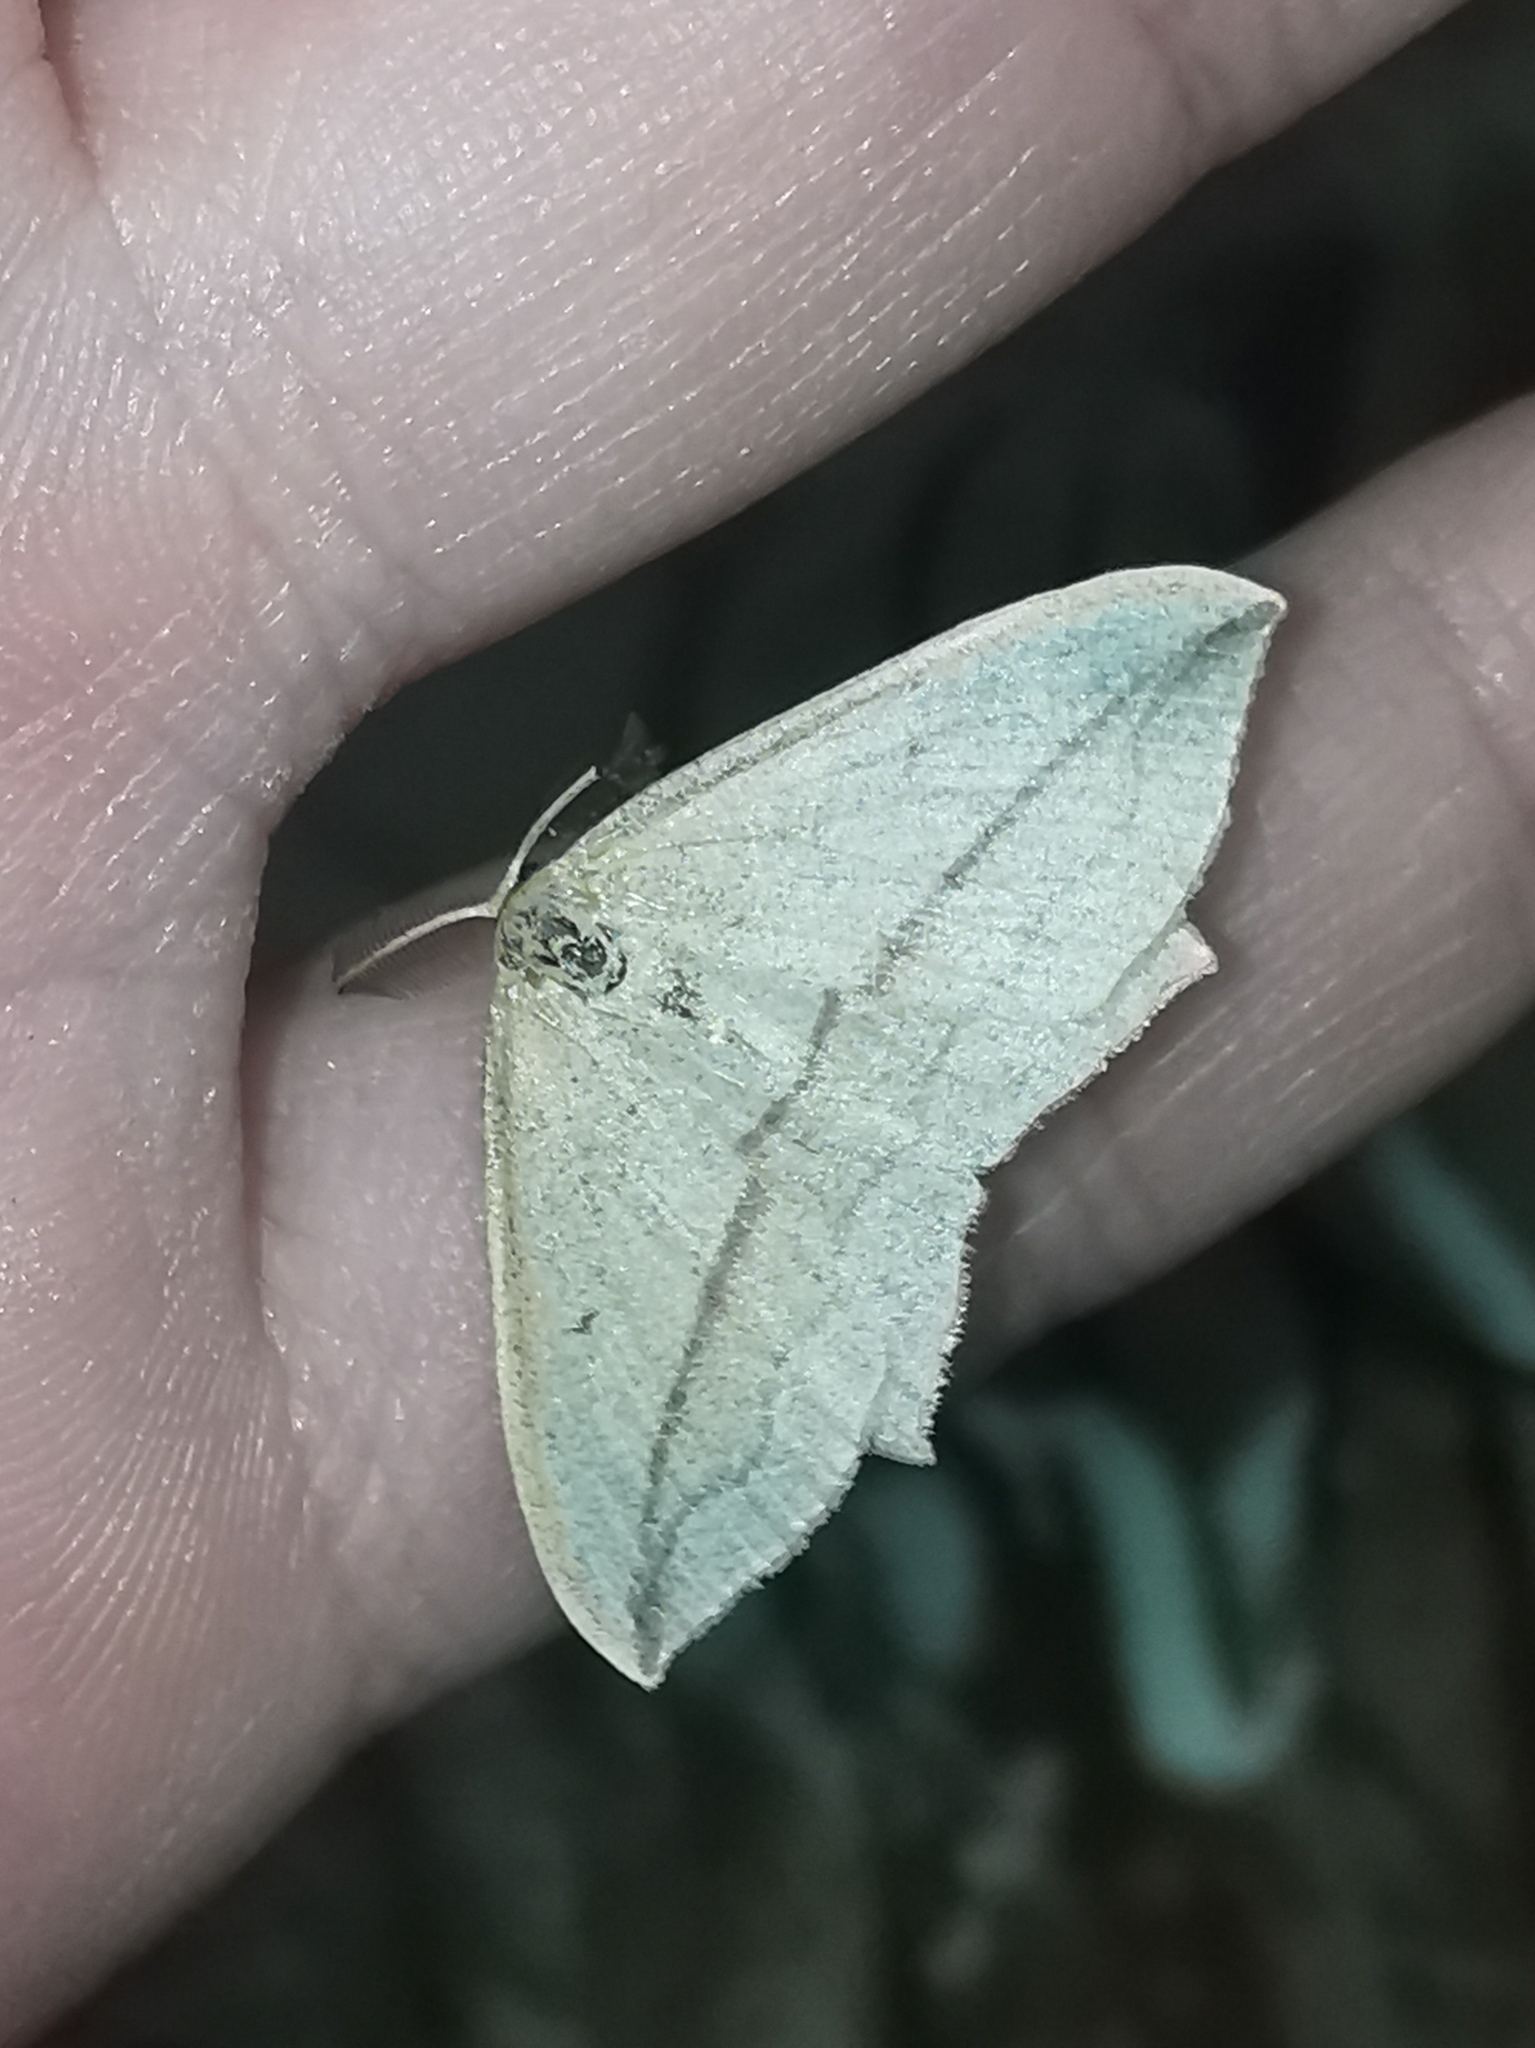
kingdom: Animalia
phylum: Arthropoda
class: Insecta
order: Lepidoptera
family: Geometridae
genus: Timandra
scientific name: Timandra comae
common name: Blood-vein
